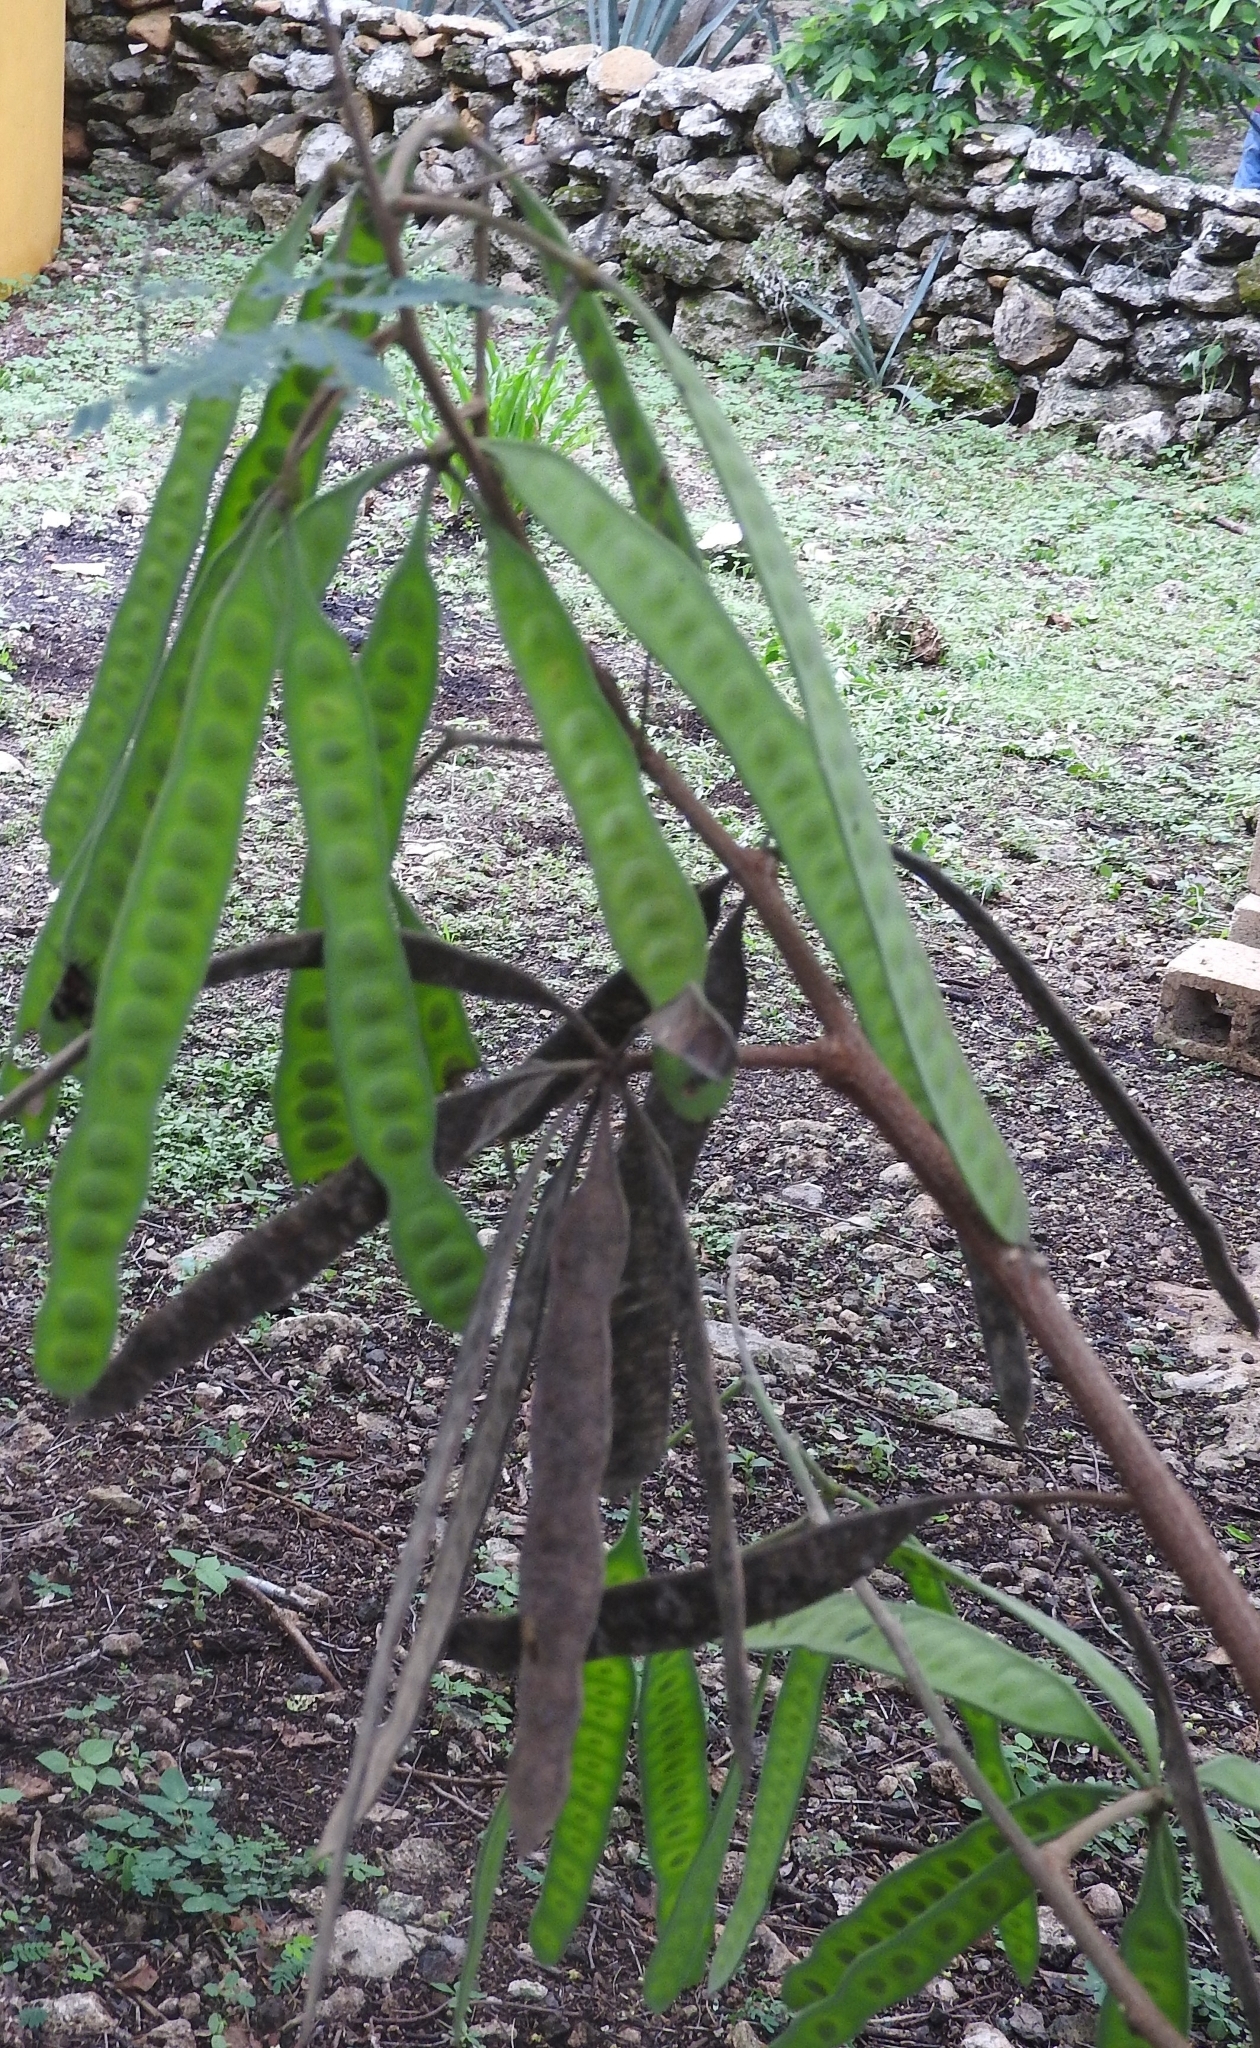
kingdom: Plantae
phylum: Tracheophyta
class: Magnoliopsida
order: Fabales
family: Fabaceae
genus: Leucaena
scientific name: Leucaena leucocephala
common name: White leadtree
